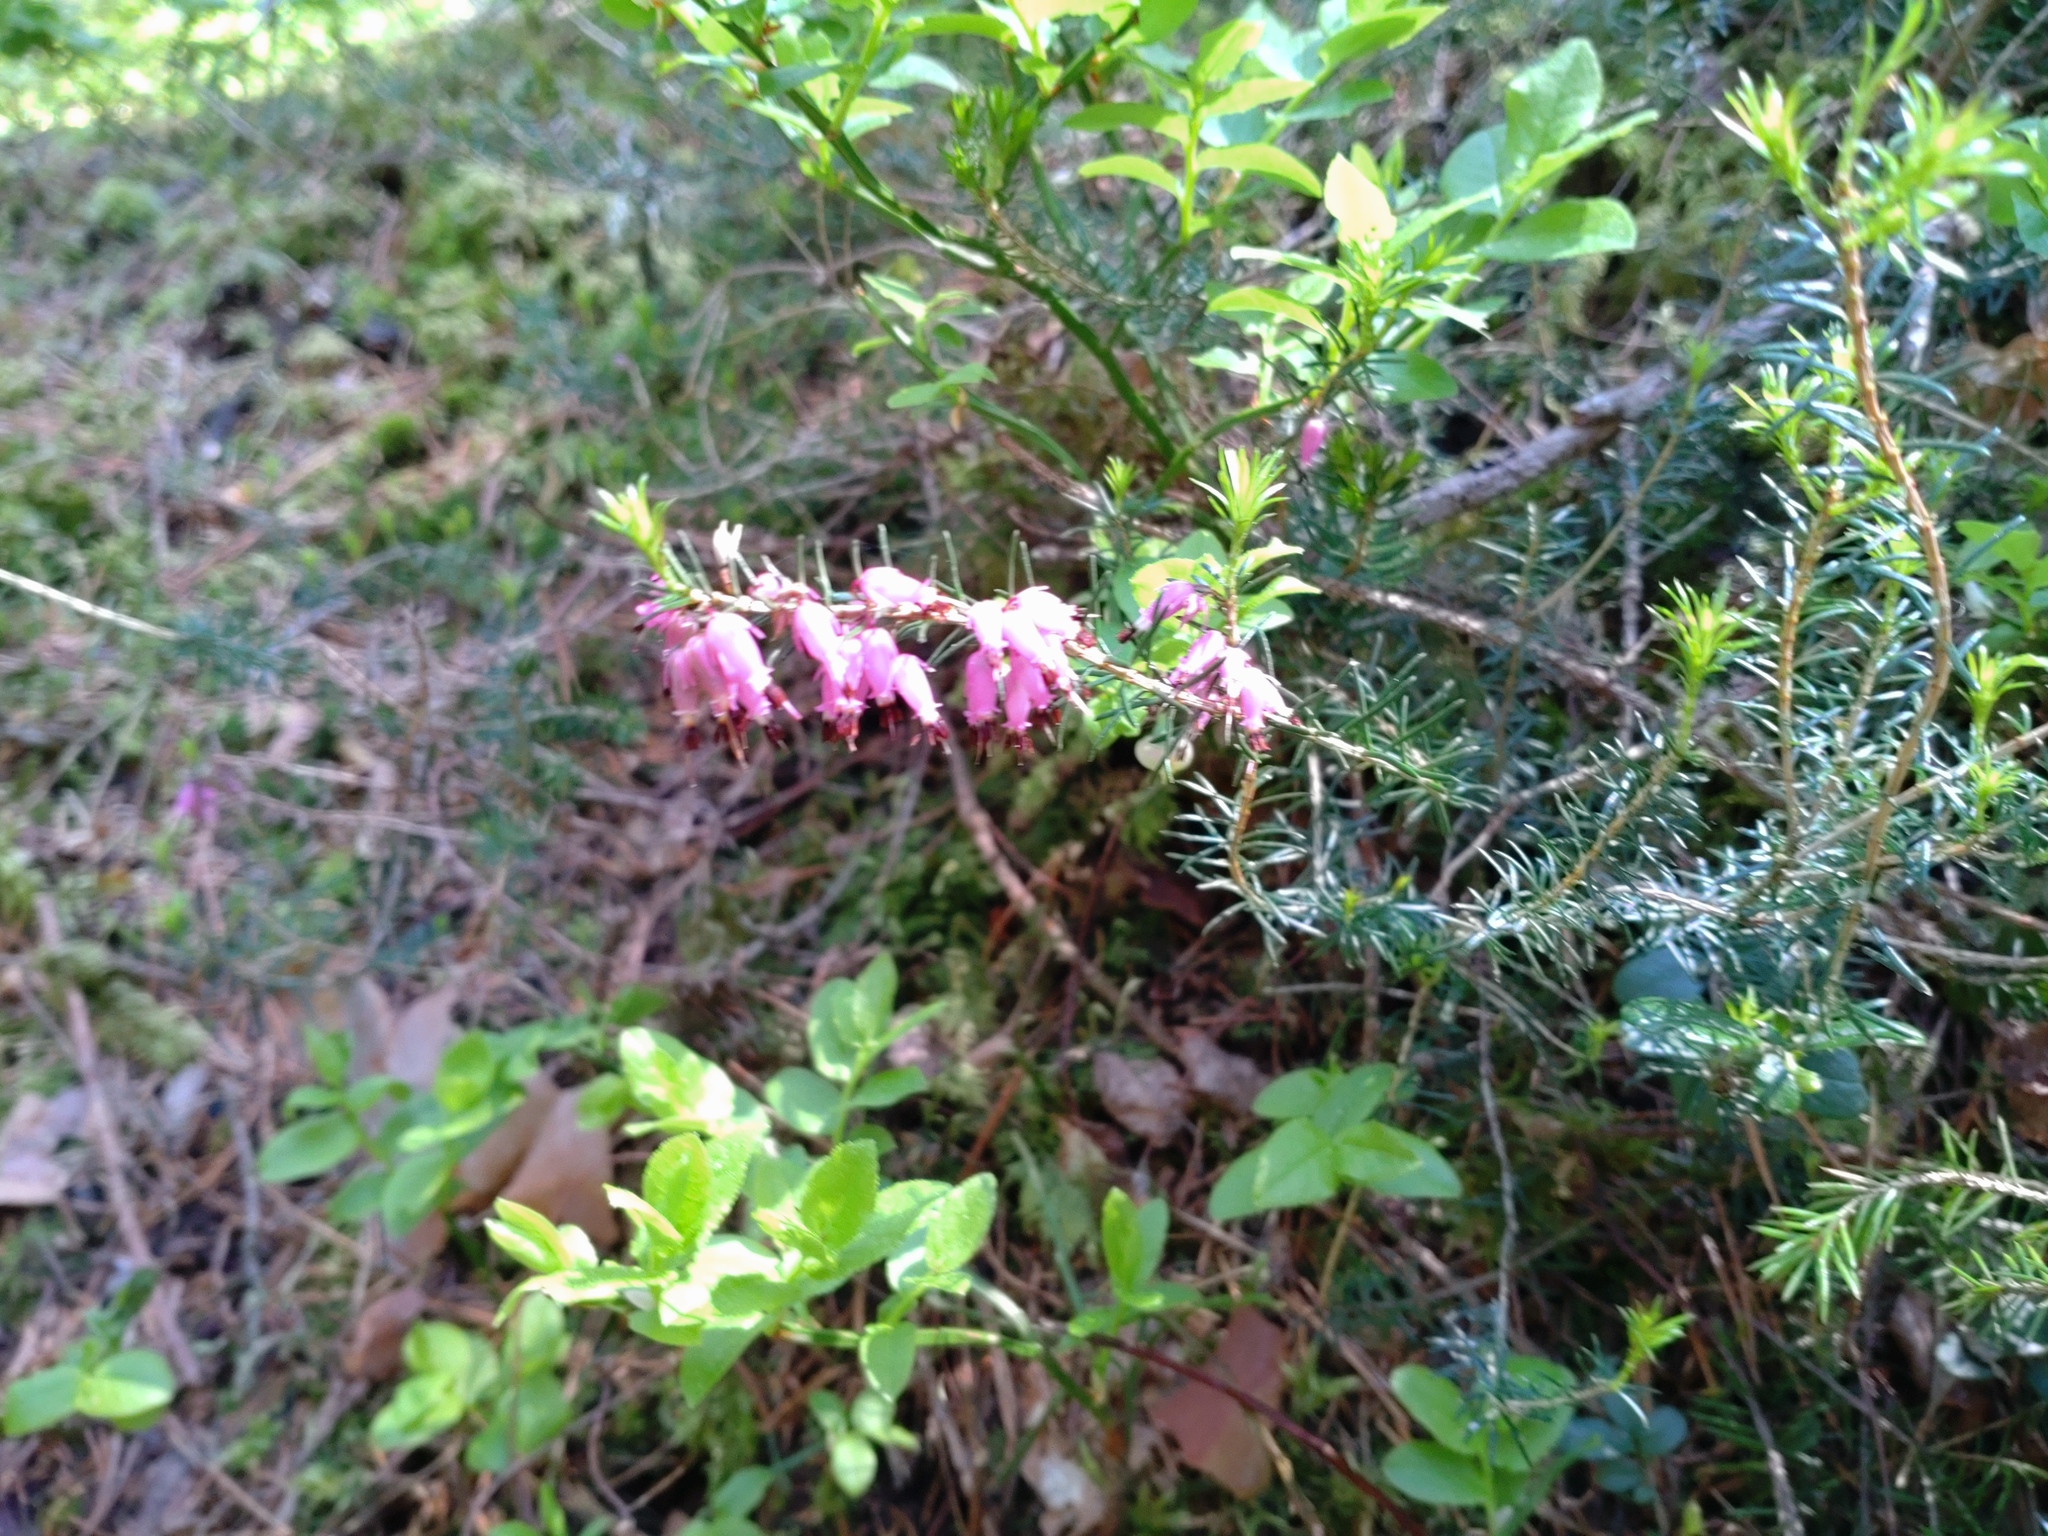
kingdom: Plantae
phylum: Tracheophyta
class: Magnoliopsida
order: Ericales
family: Ericaceae
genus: Erica
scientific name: Erica carnea
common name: Winter heath
